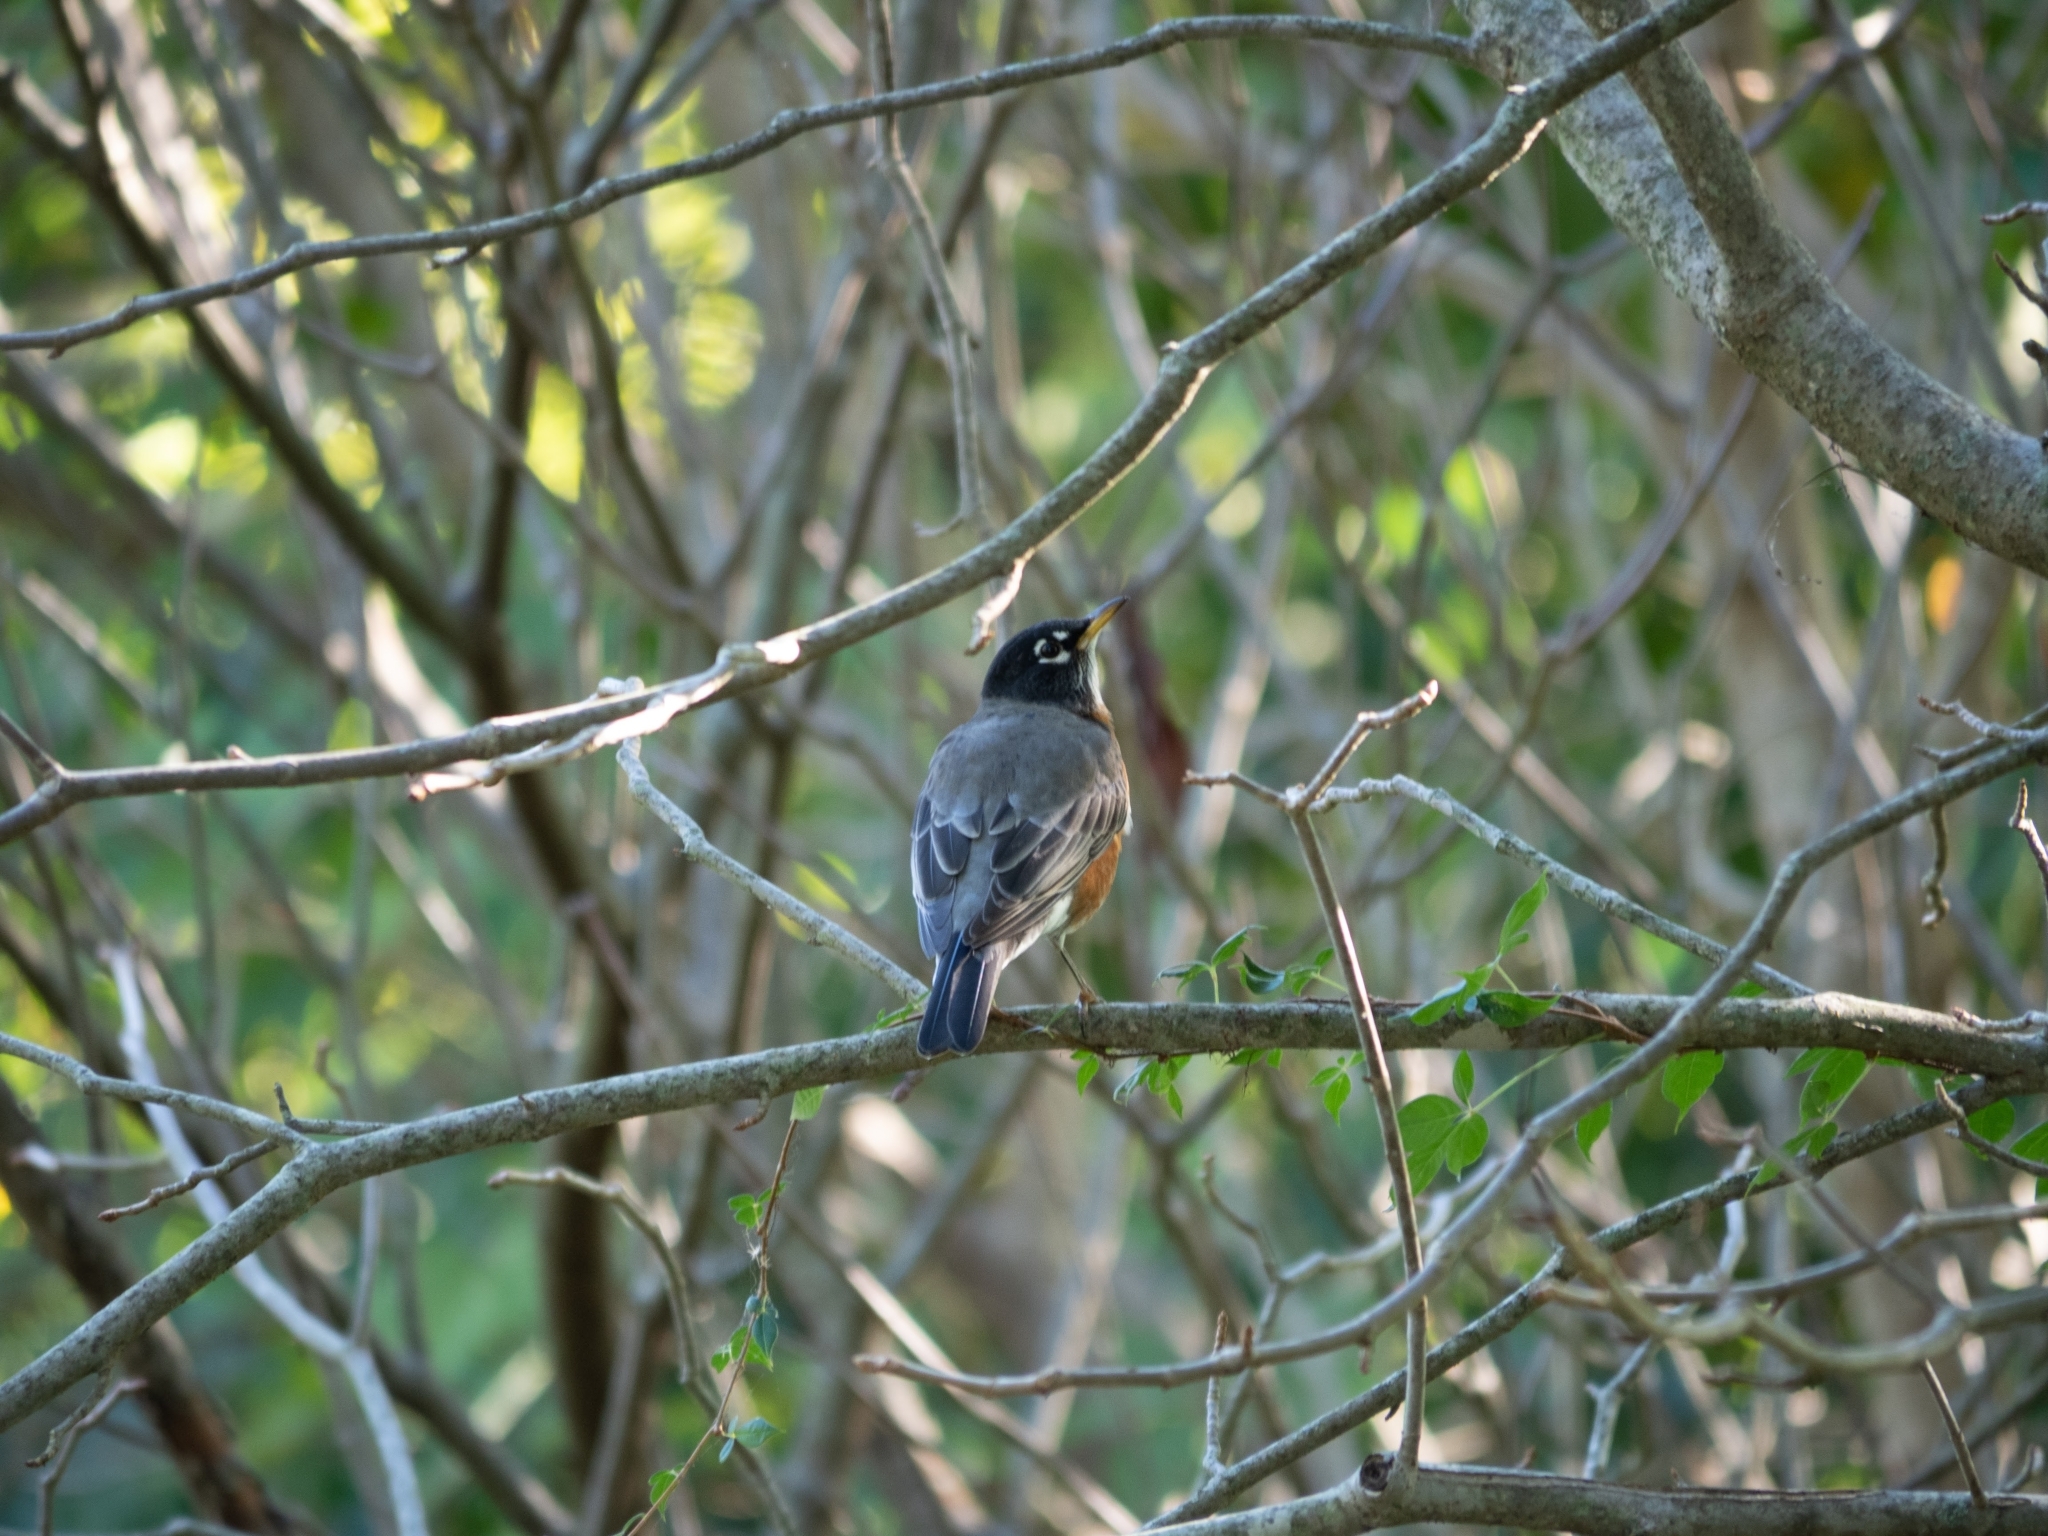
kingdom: Animalia
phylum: Chordata
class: Aves
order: Passeriformes
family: Turdidae
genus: Turdus
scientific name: Turdus migratorius
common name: American robin
